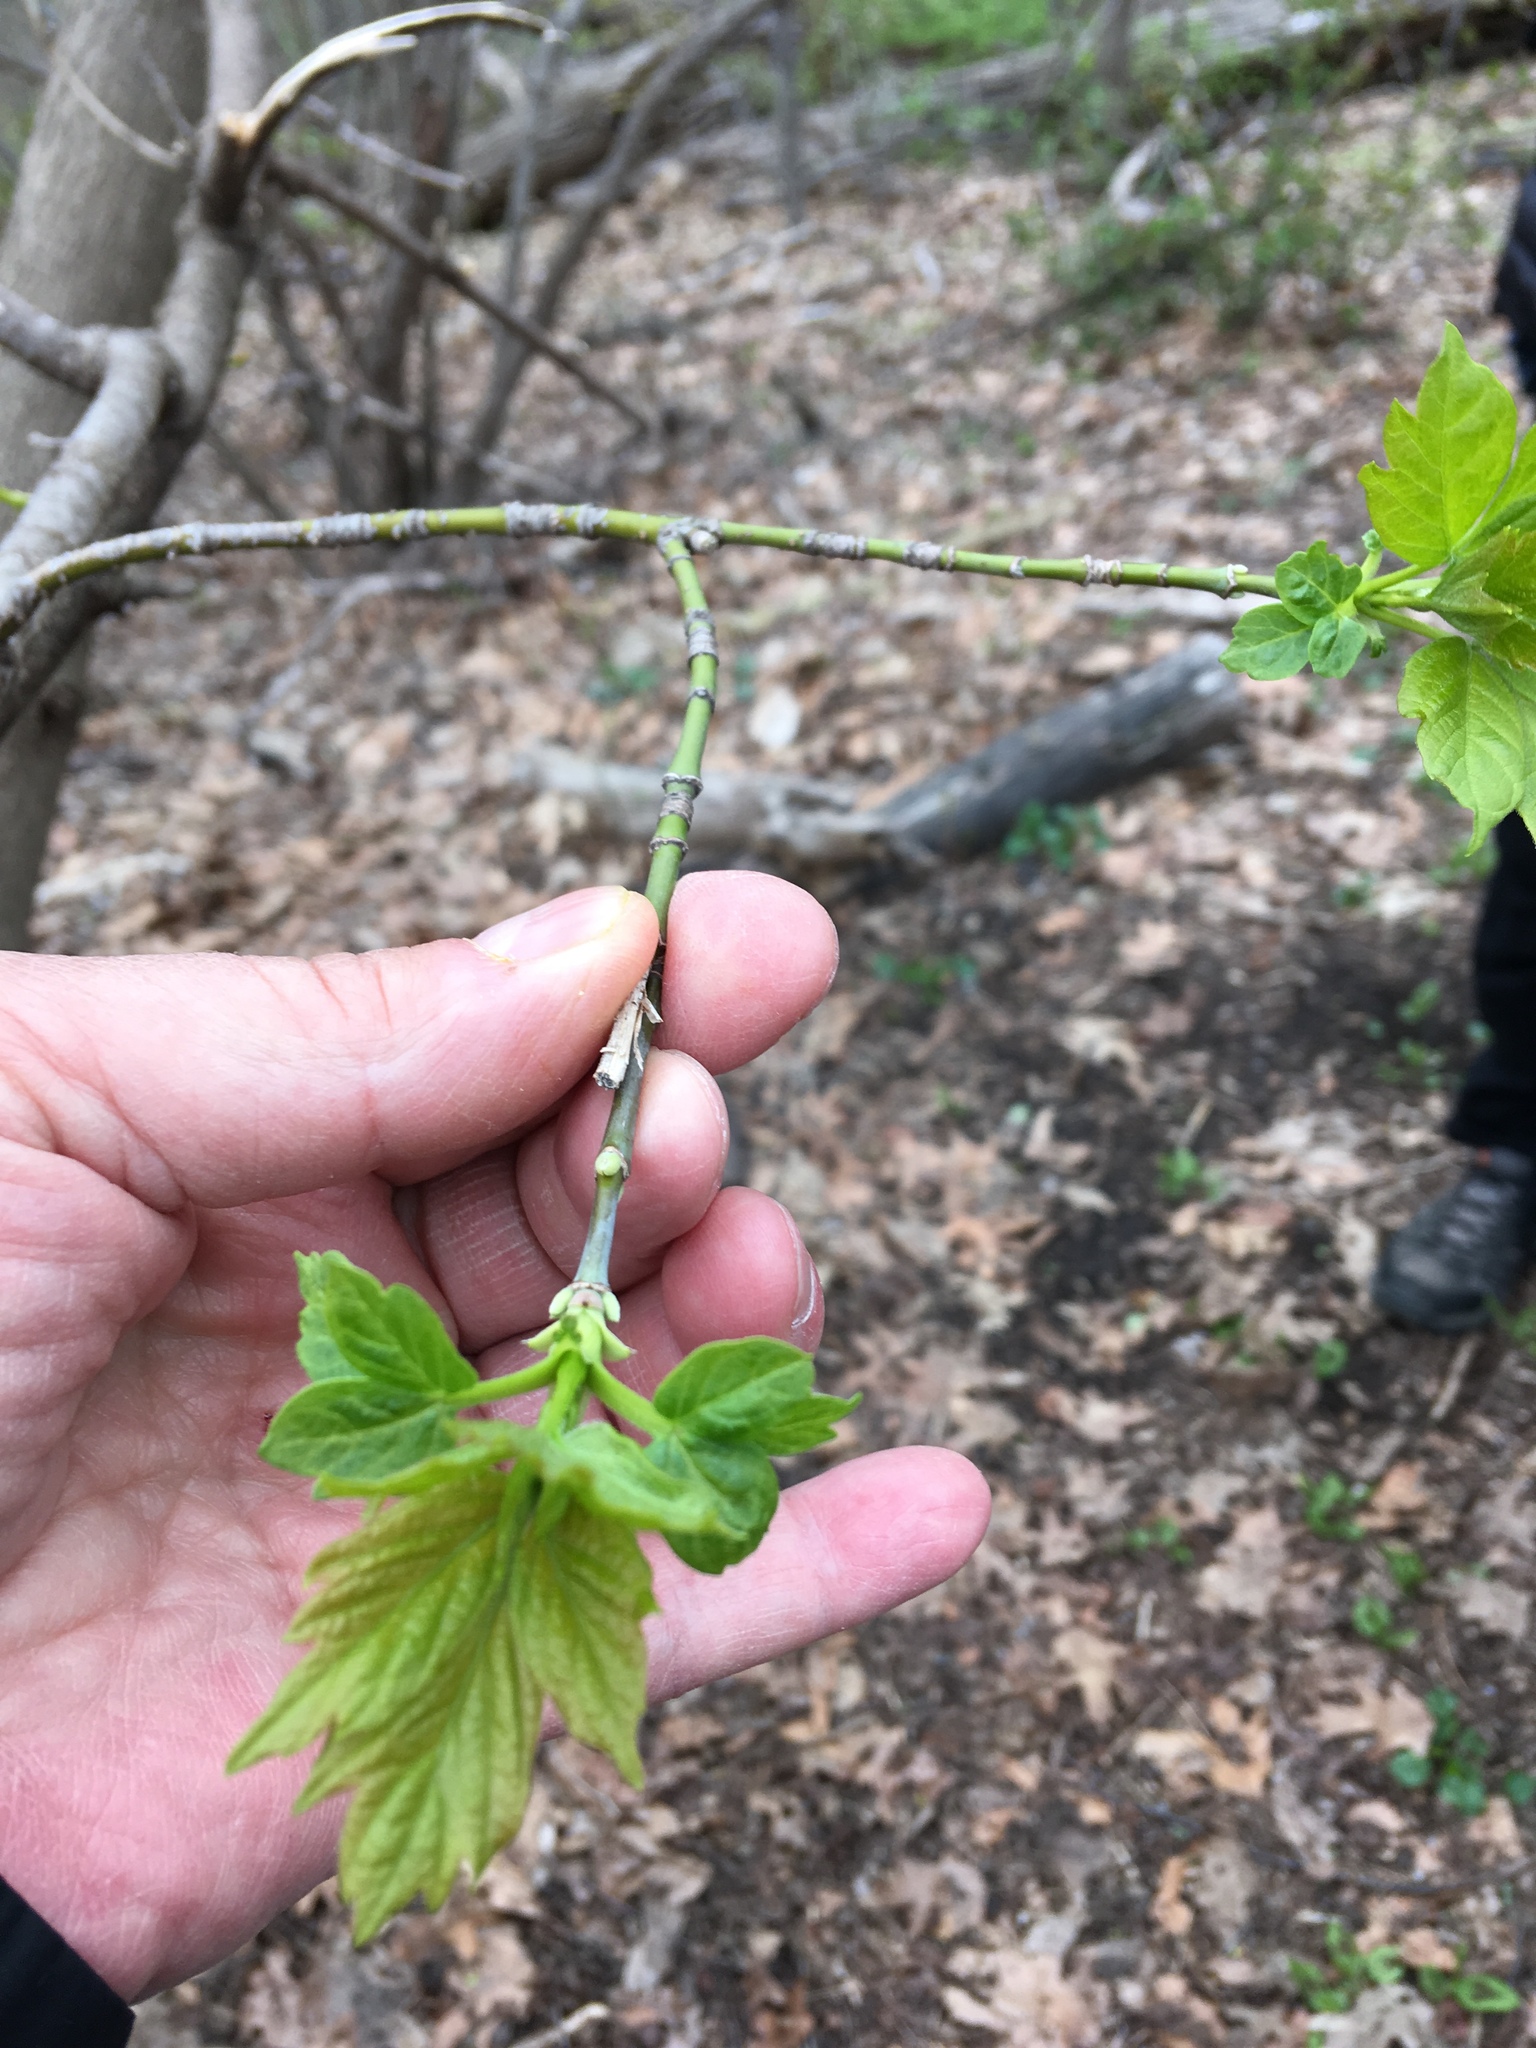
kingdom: Plantae
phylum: Tracheophyta
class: Magnoliopsida
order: Sapindales
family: Sapindaceae
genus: Acer
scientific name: Acer negundo
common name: Ashleaf maple
